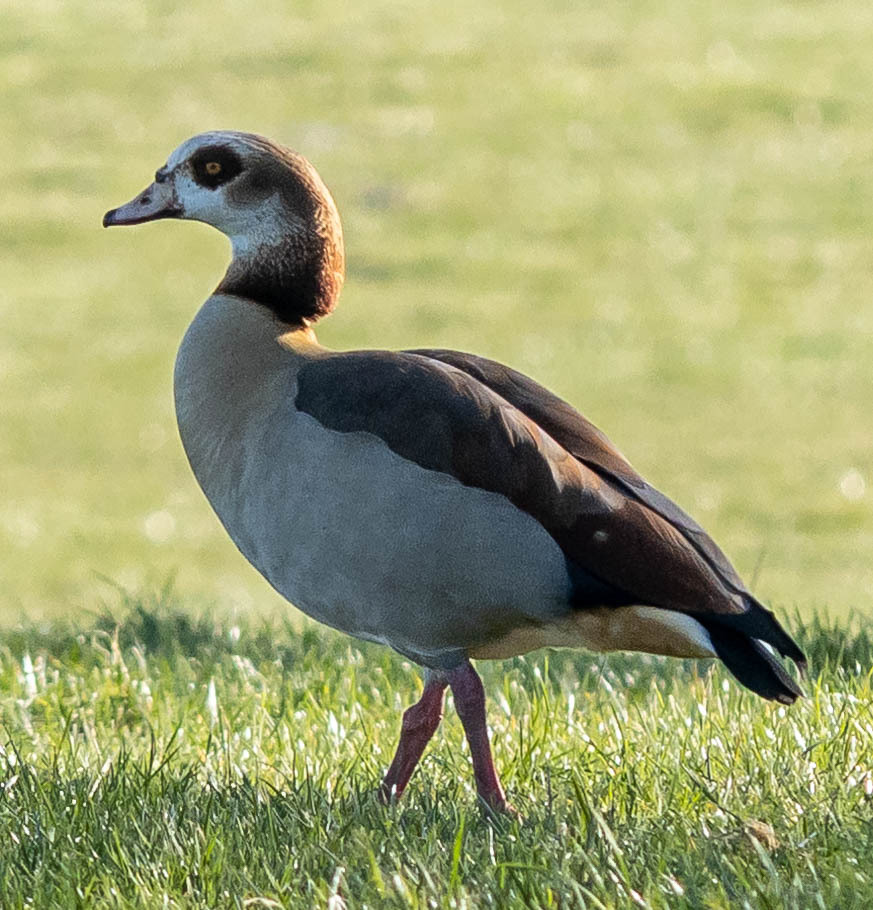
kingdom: Animalia
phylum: Chordata
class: Aves
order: Anseriformes
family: Anatidae
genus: Alopochen
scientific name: Alopochen aegyptiaca
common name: Egyptian goose
